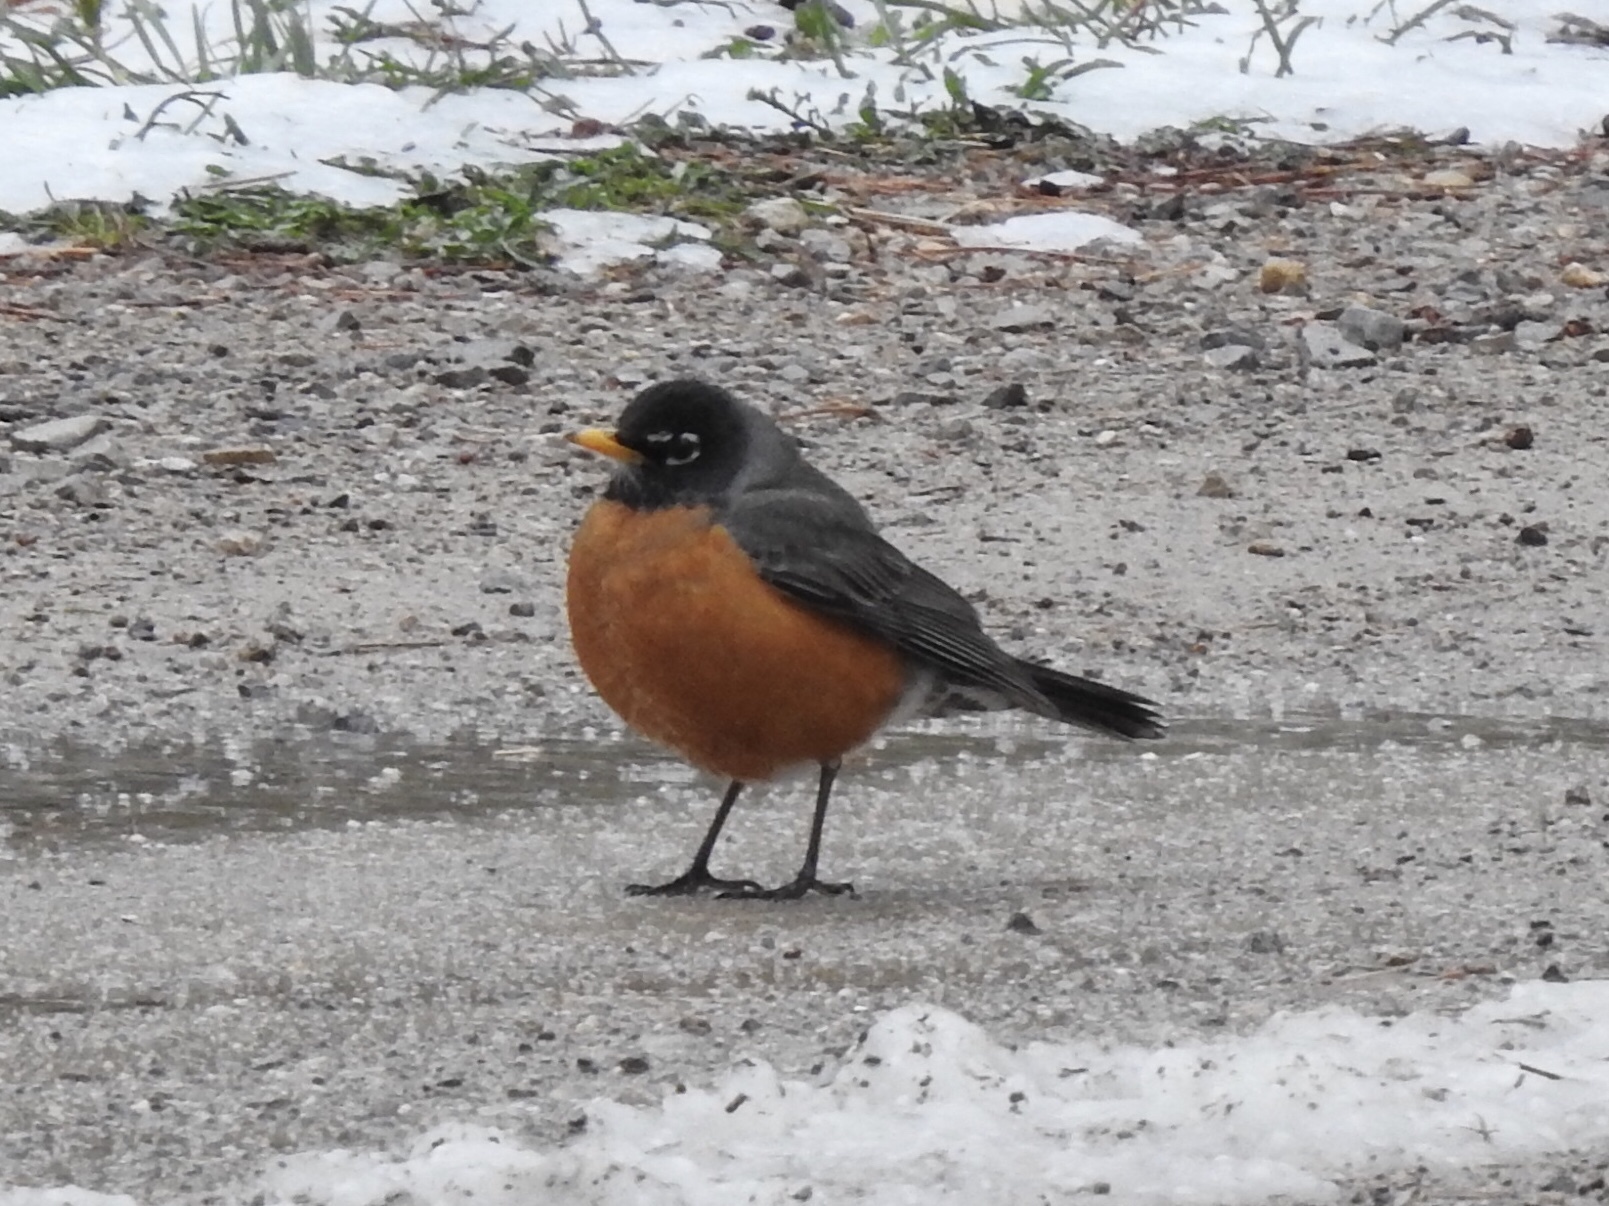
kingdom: Animalia
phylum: Chordata
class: Aves
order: Passeriformes
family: Turdidae
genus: Turdus
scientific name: Turdus migratorius
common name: American robin
